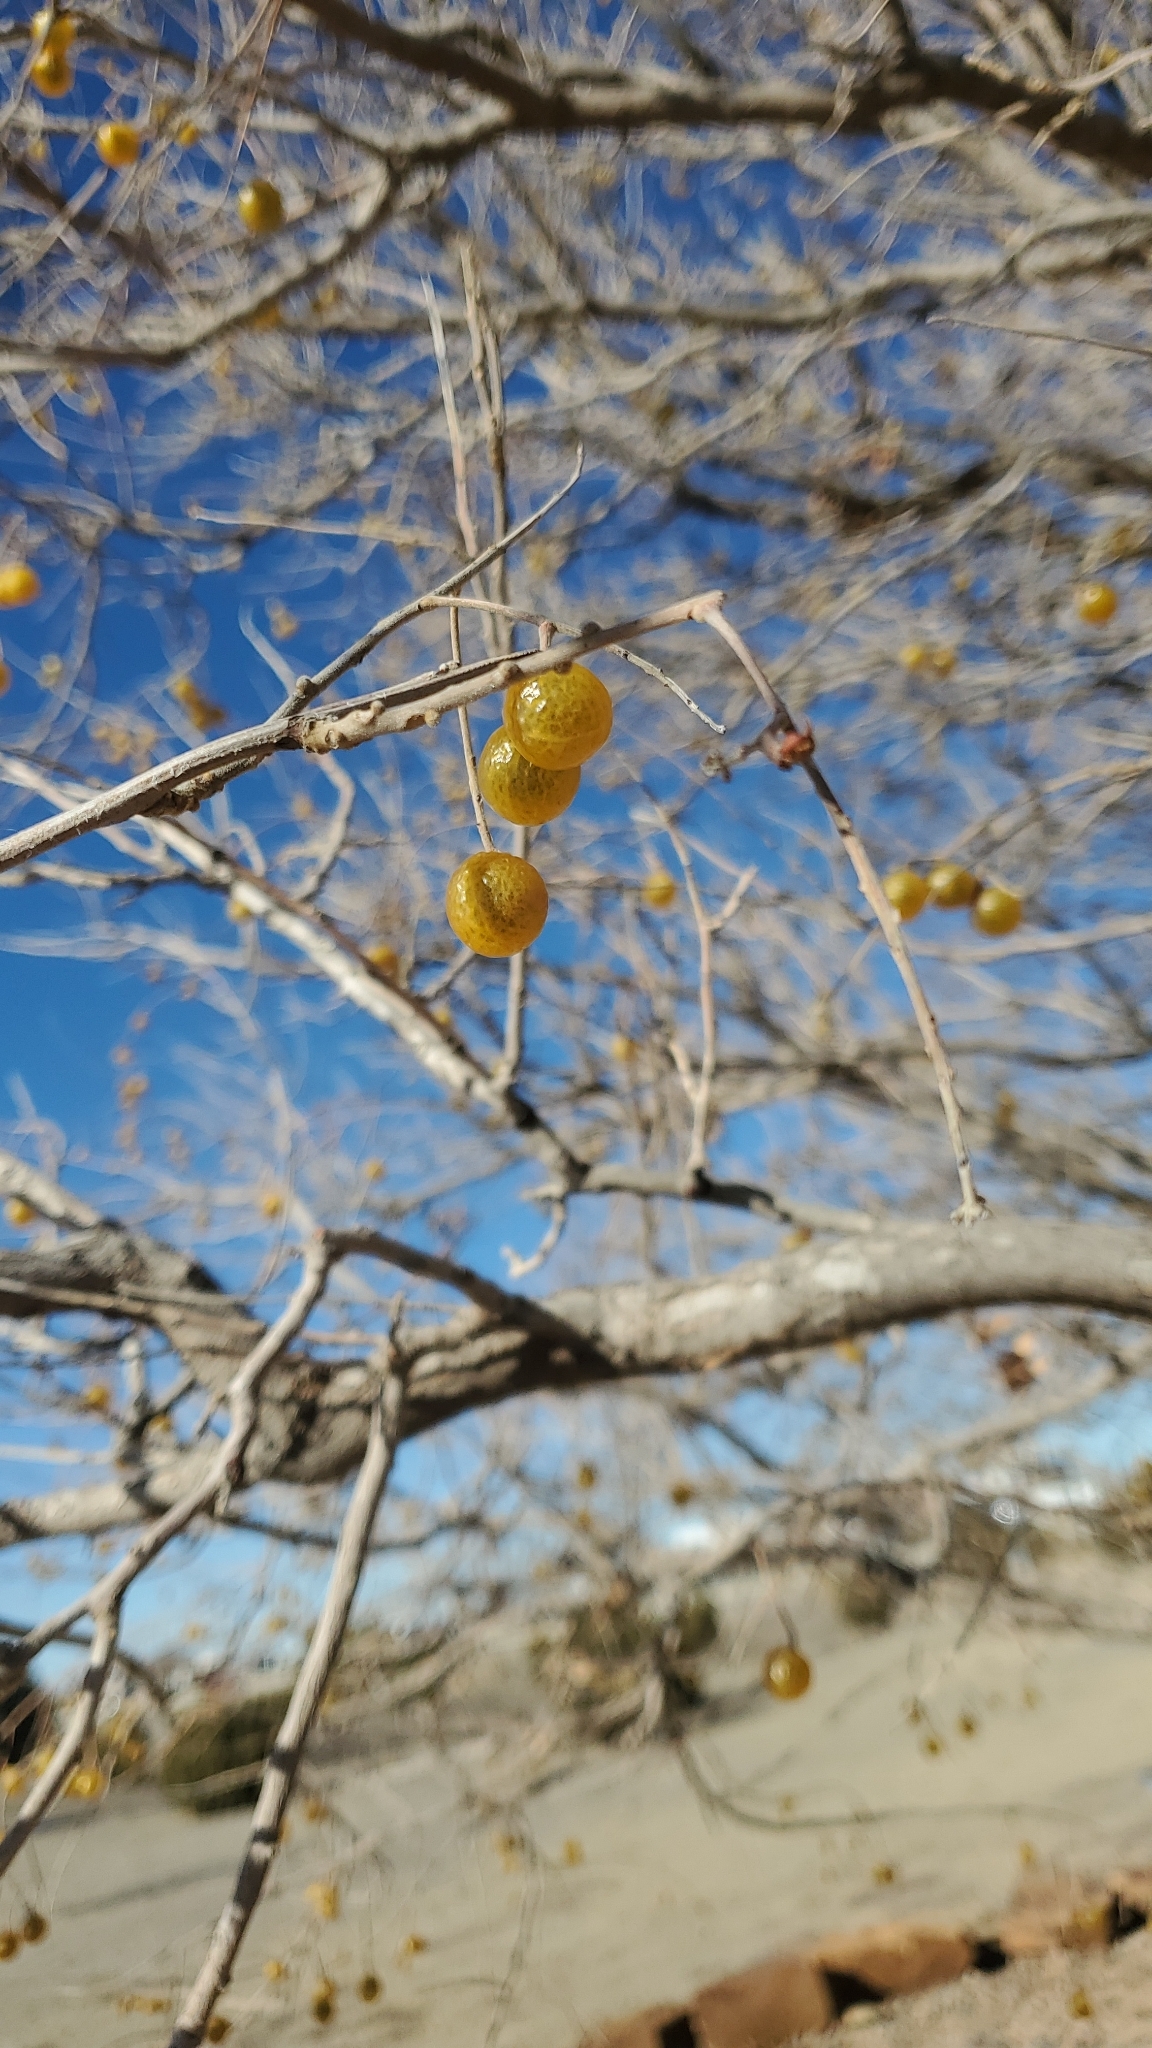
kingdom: Plantae
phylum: Tracheophyta
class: Magnoliopsida
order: Sapindales
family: Sapindaceae
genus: Sapindus
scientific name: Sapindus drummondii
